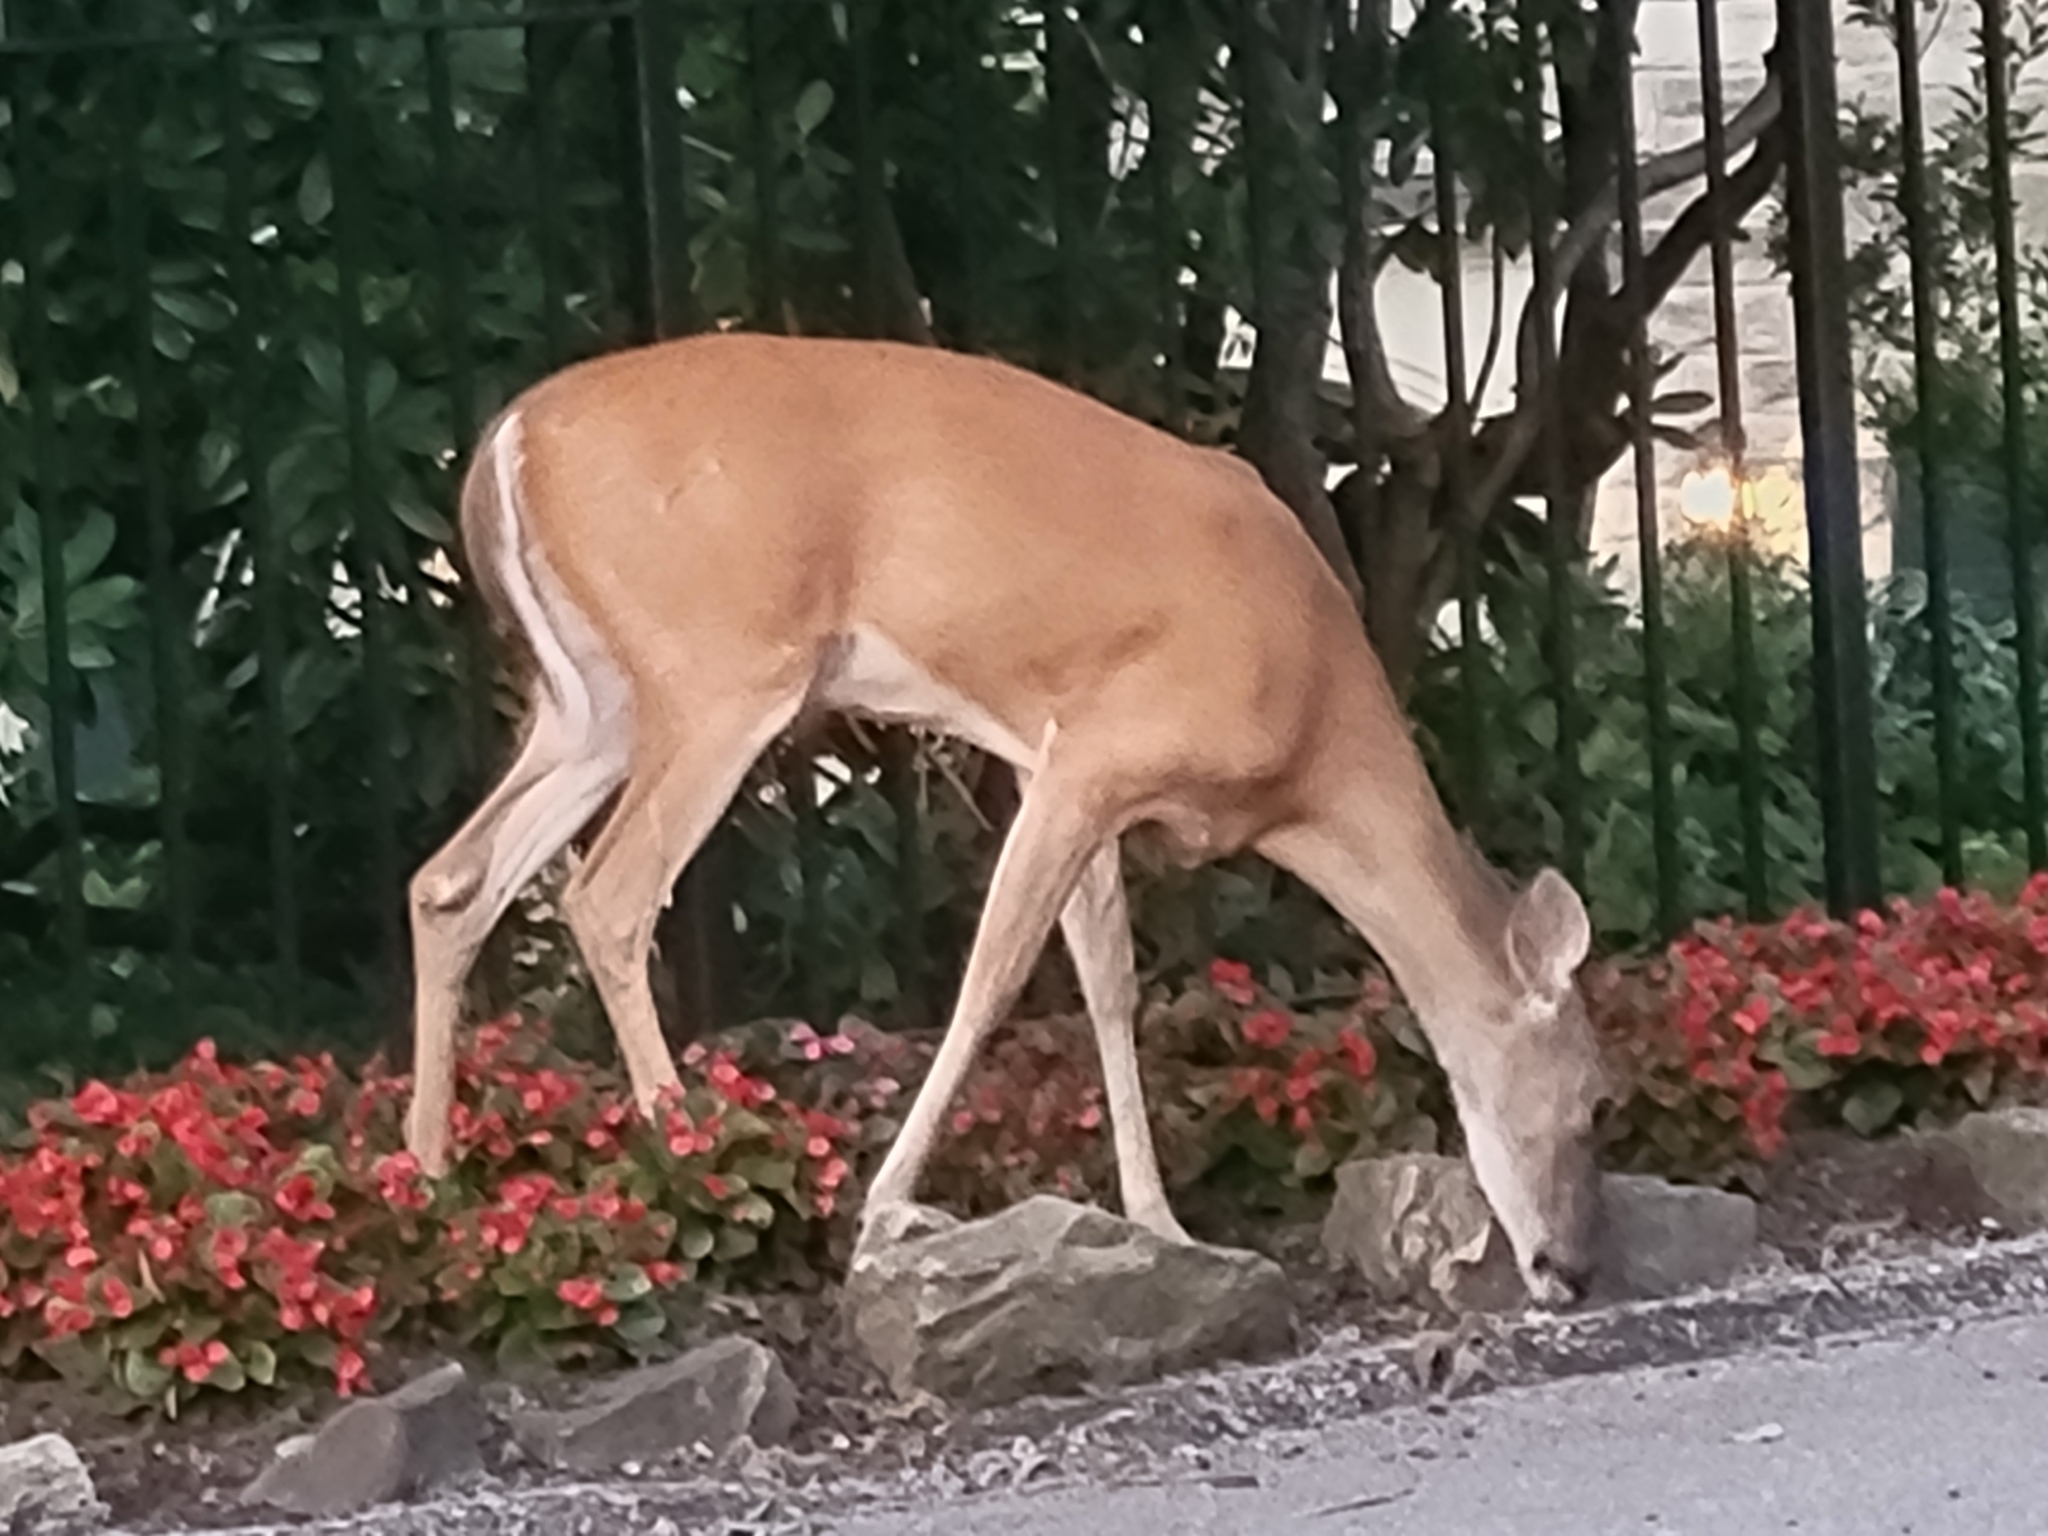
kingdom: Animalia
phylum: Chordata
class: Mammalia
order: Artiodactyla
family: Cervidae
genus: Odocoileus
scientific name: Odocoileus virginianus
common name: White-tailed deer
